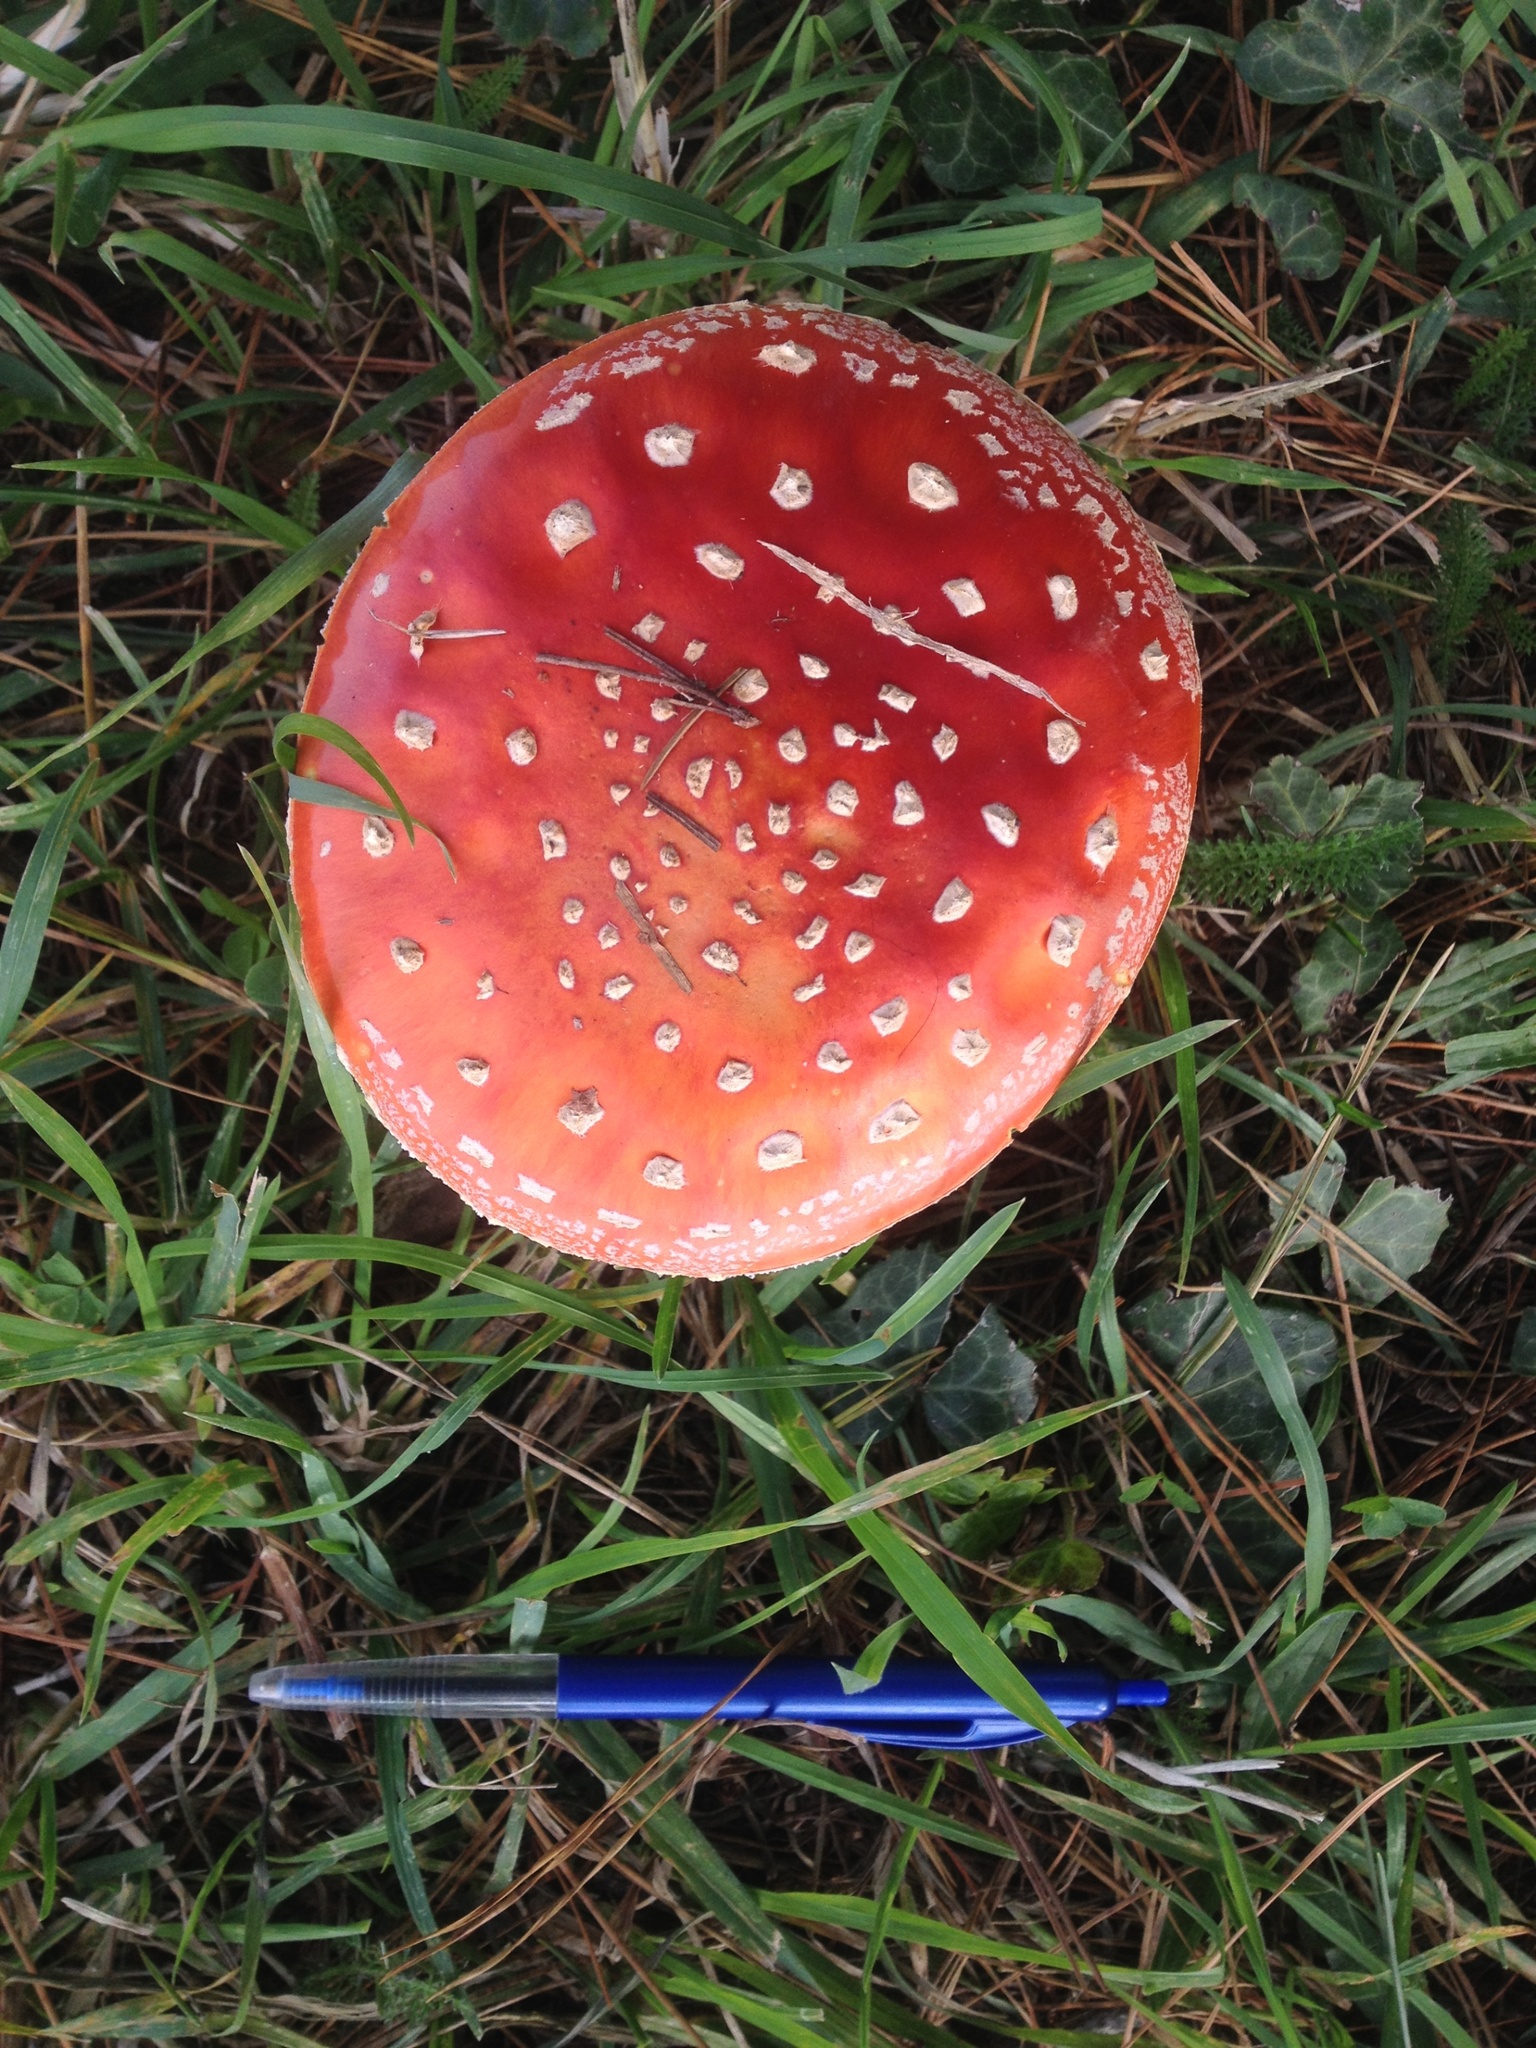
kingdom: Fungi
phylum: Basidiomycota
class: Agaricomycetes
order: Agaricales
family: Amanitaceae
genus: Amanita
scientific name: Amanita muscaria
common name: Fly agaric
